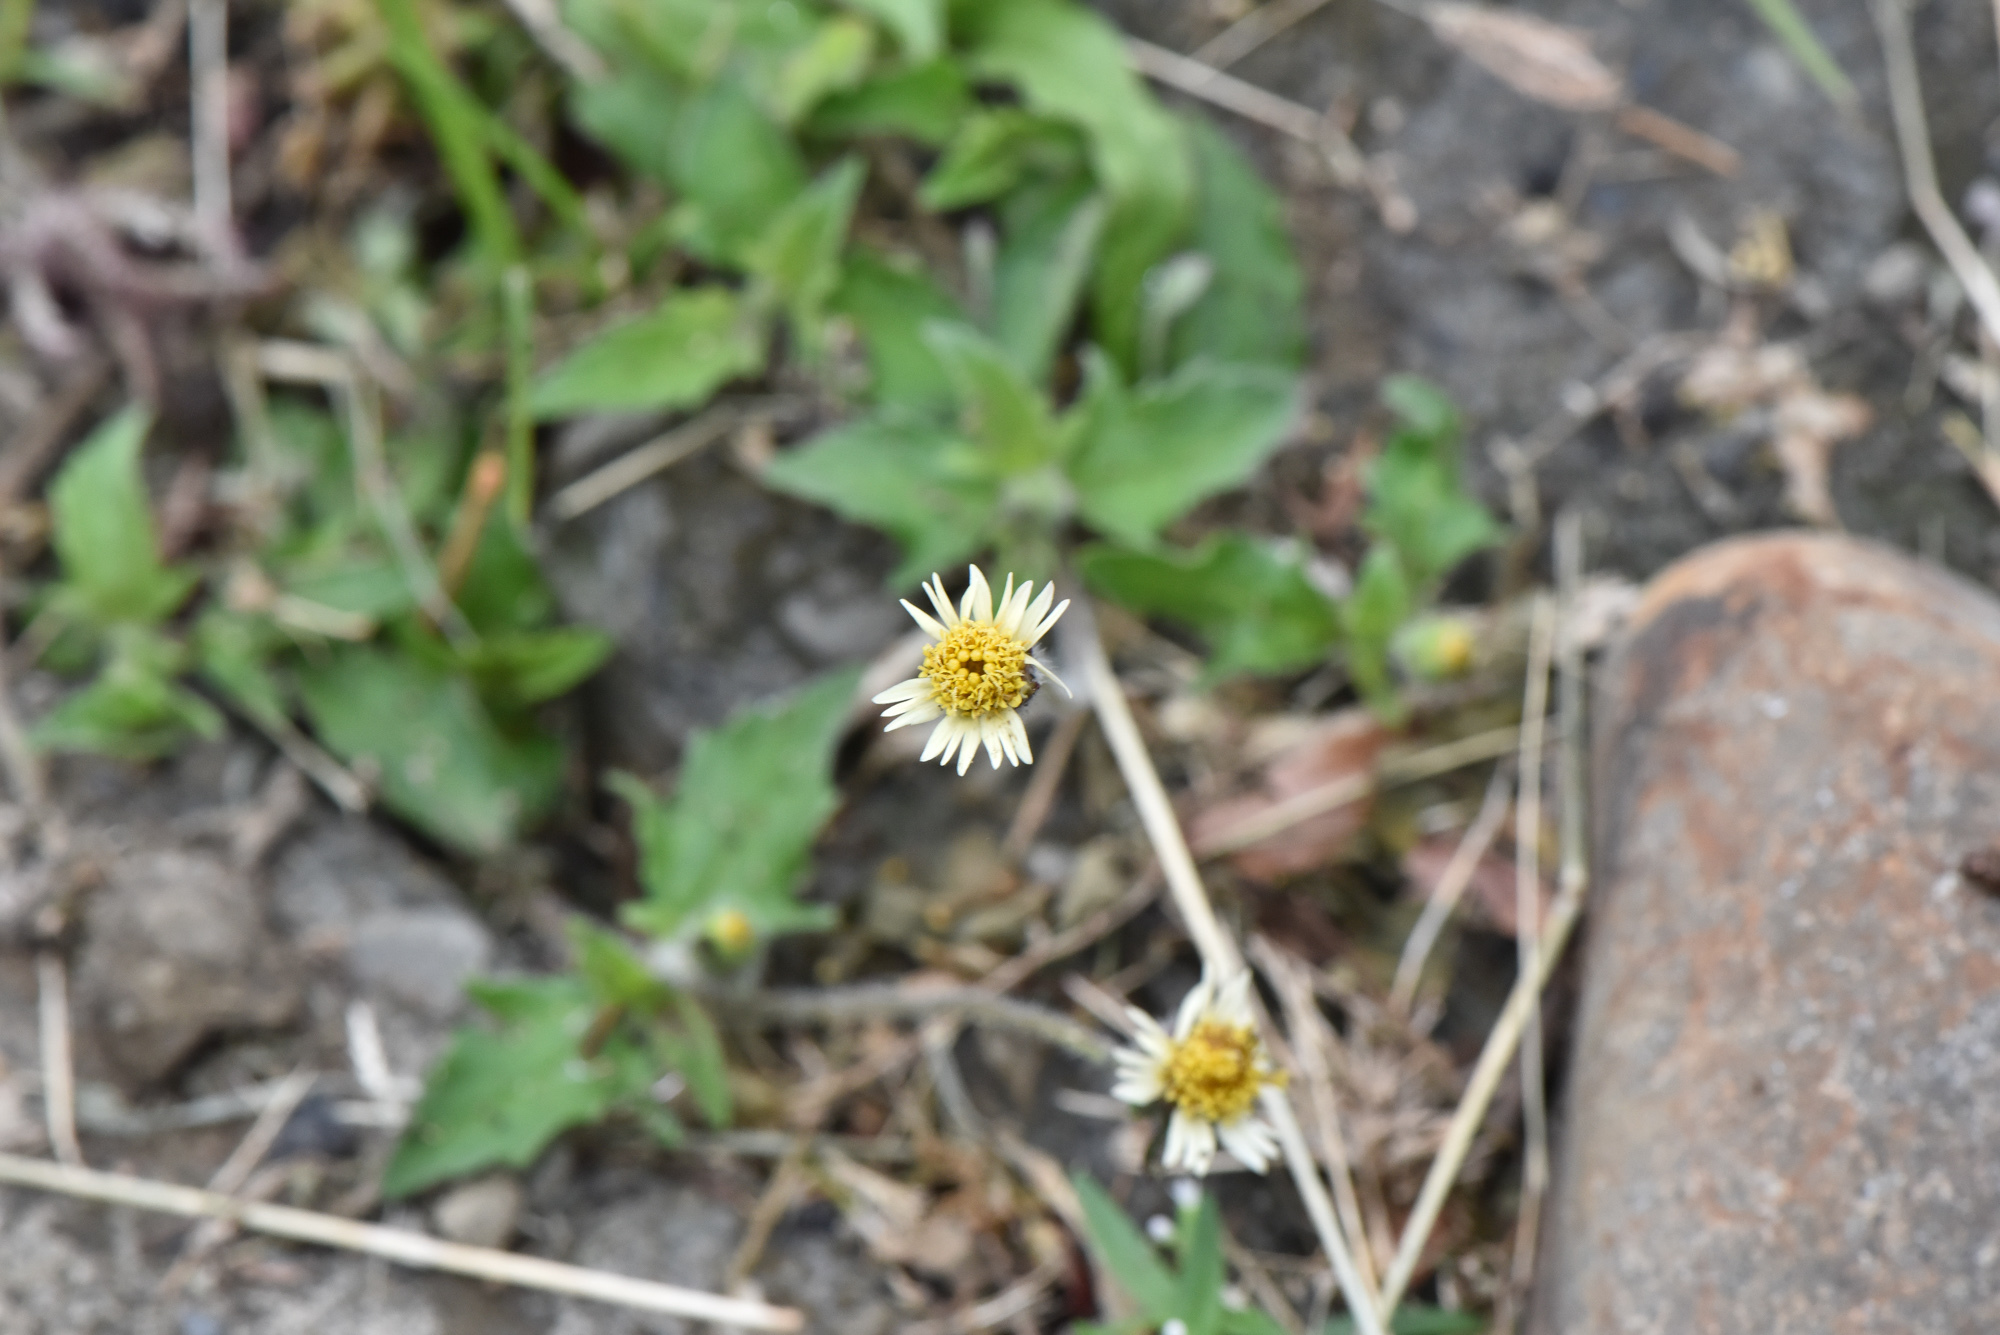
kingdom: Plantae
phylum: Tracheophyta
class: Magnoliopsida
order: Asterales
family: Asteraceae
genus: Tridax
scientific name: Tridax procumbens
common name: Coatbuttons
